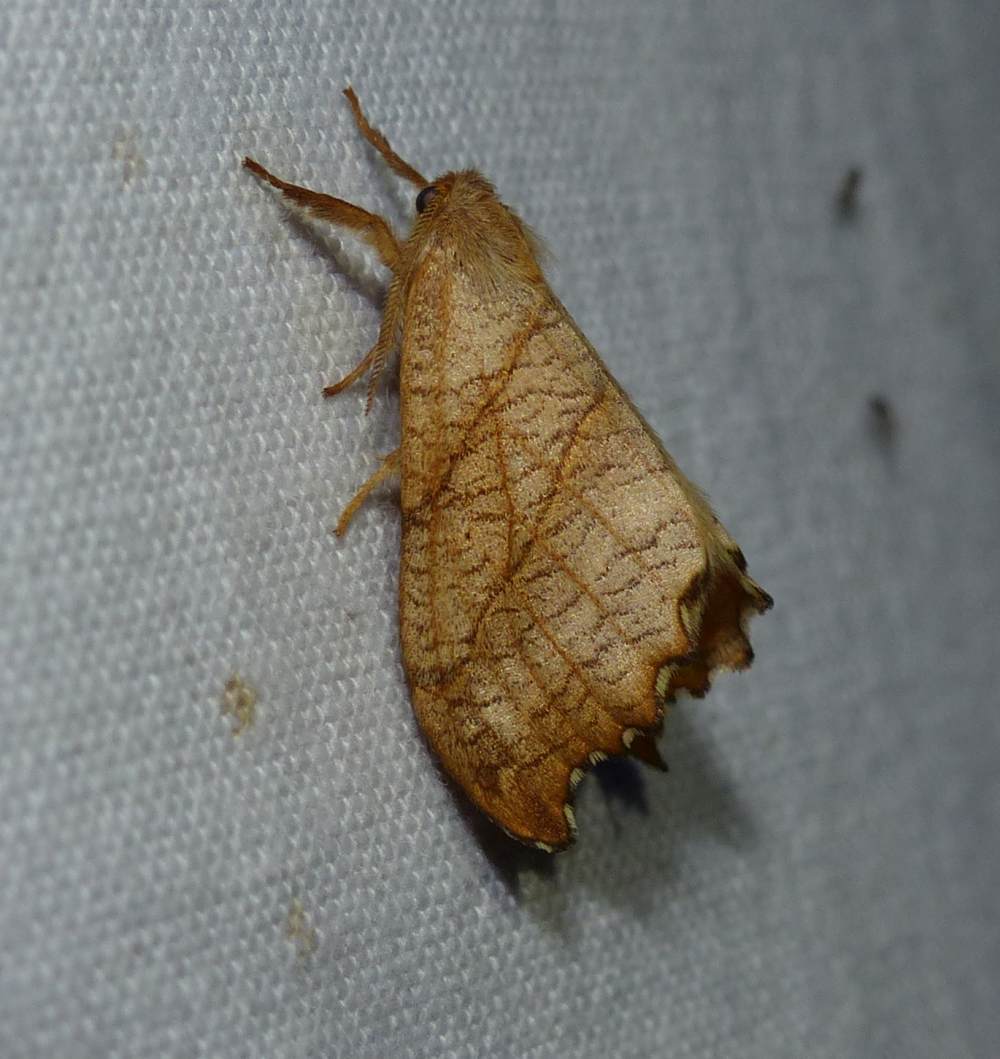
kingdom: Animalia
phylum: Arthropoda
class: Insecta
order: Lepidoptera
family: Drepanidae
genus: Falcaria
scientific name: Falcaria bilineata
